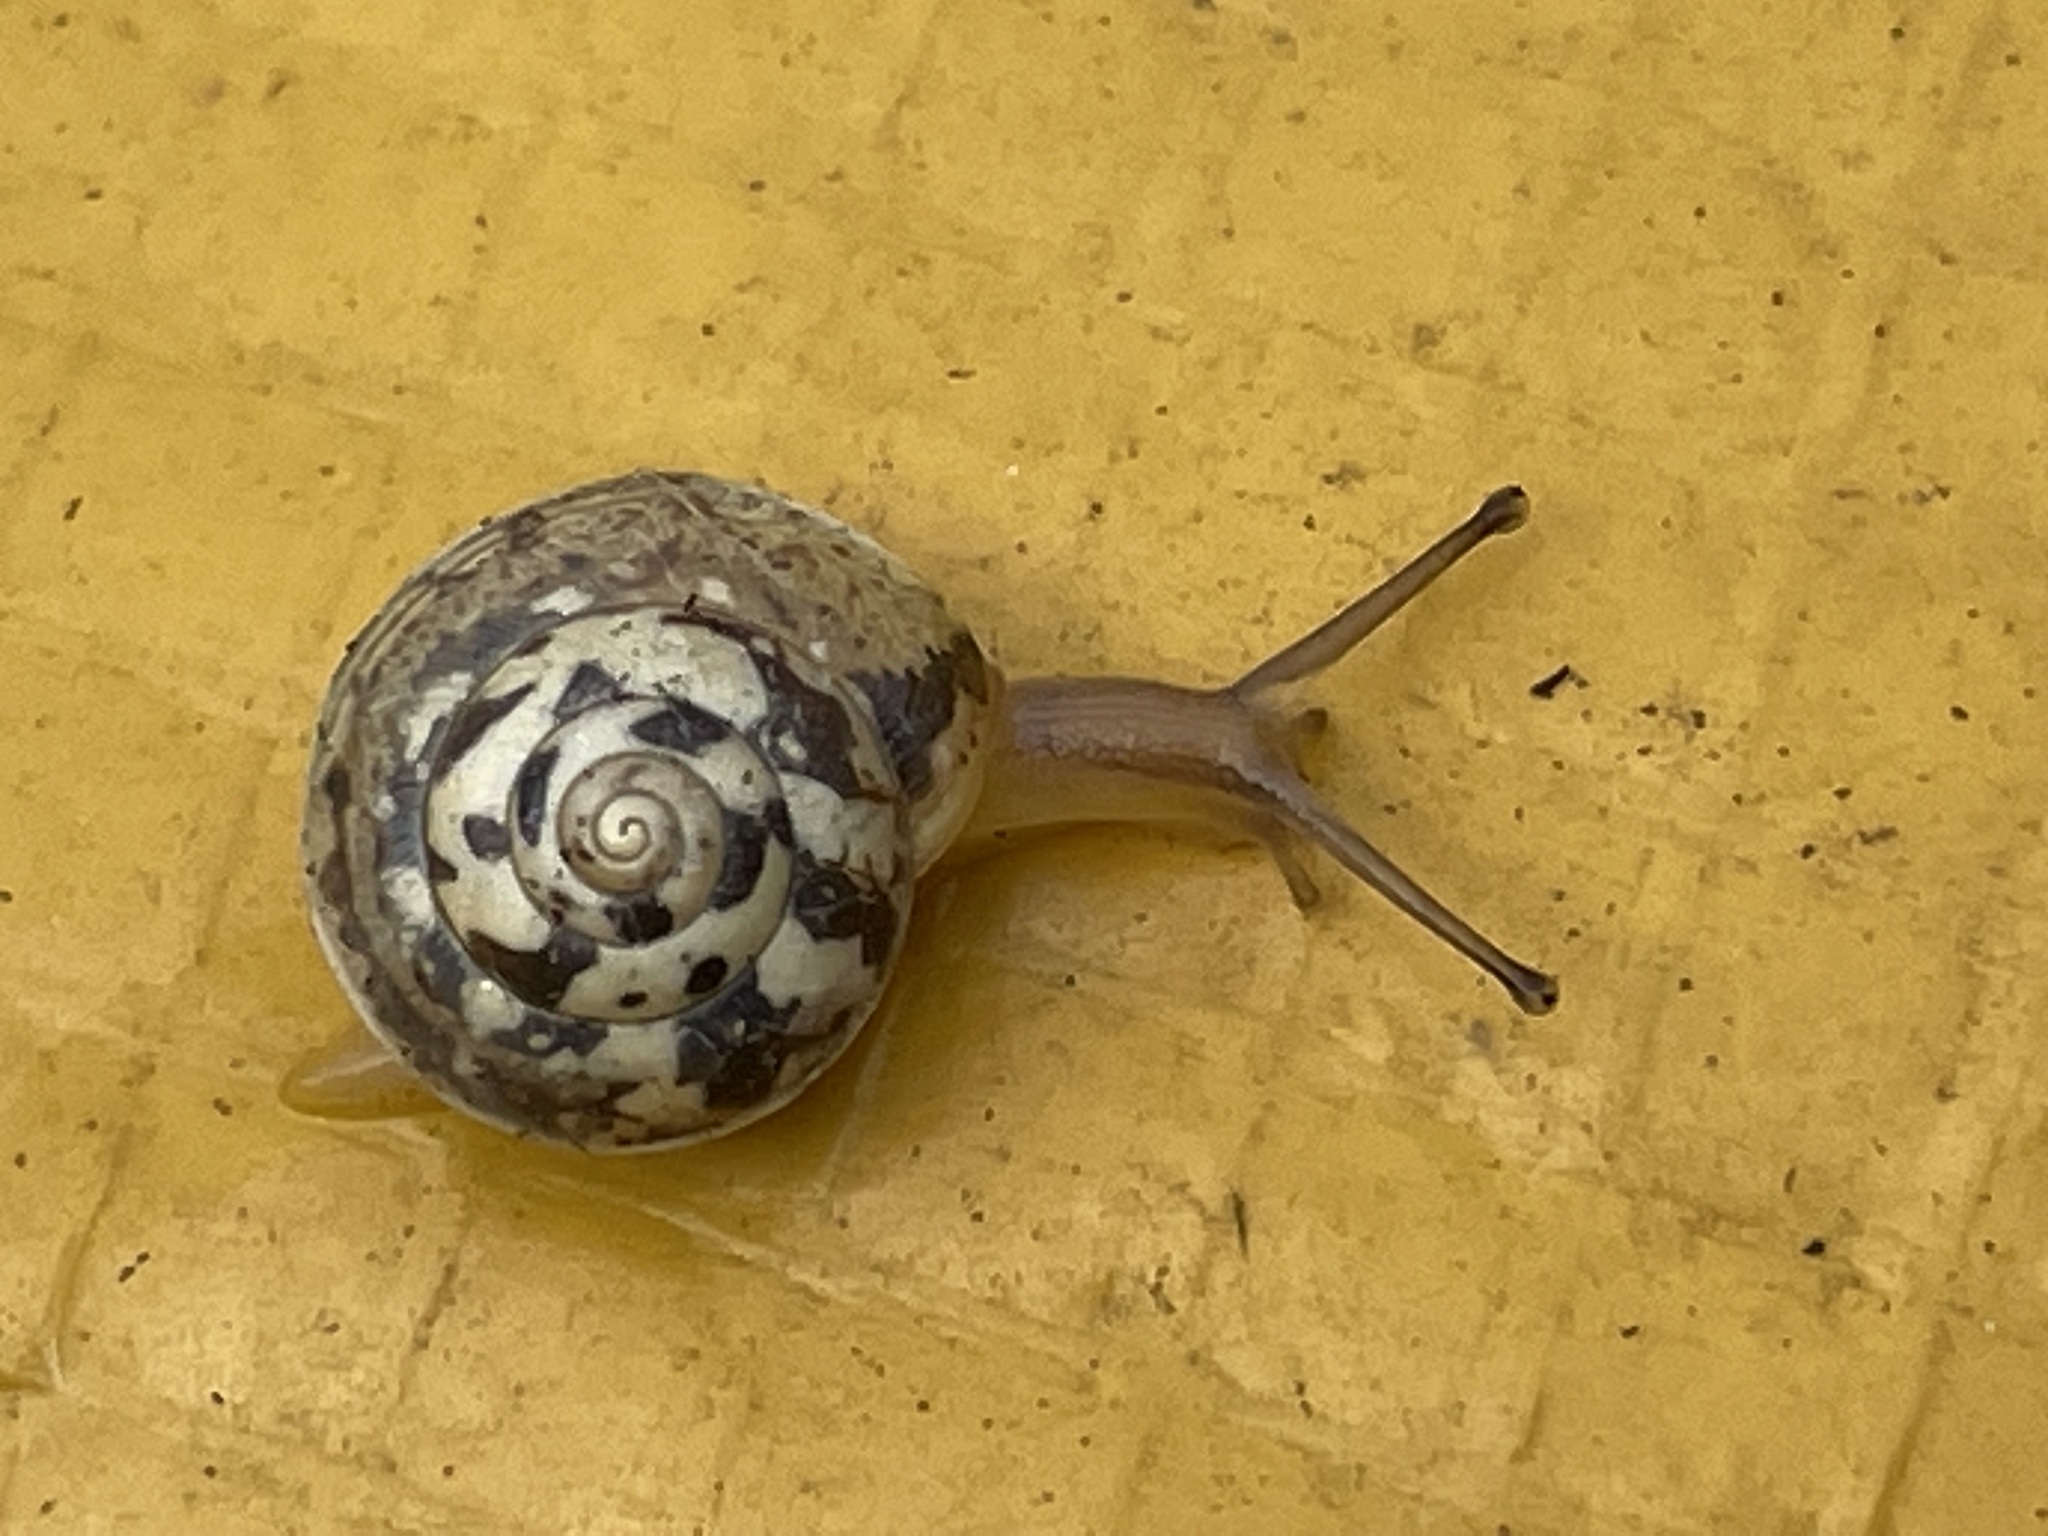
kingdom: Animalia
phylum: Mollusca
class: Gastropoda
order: Stylommatophora
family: Hygromiidae
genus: Hygromia
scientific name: Hygromia cinctella
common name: Girdled snail
